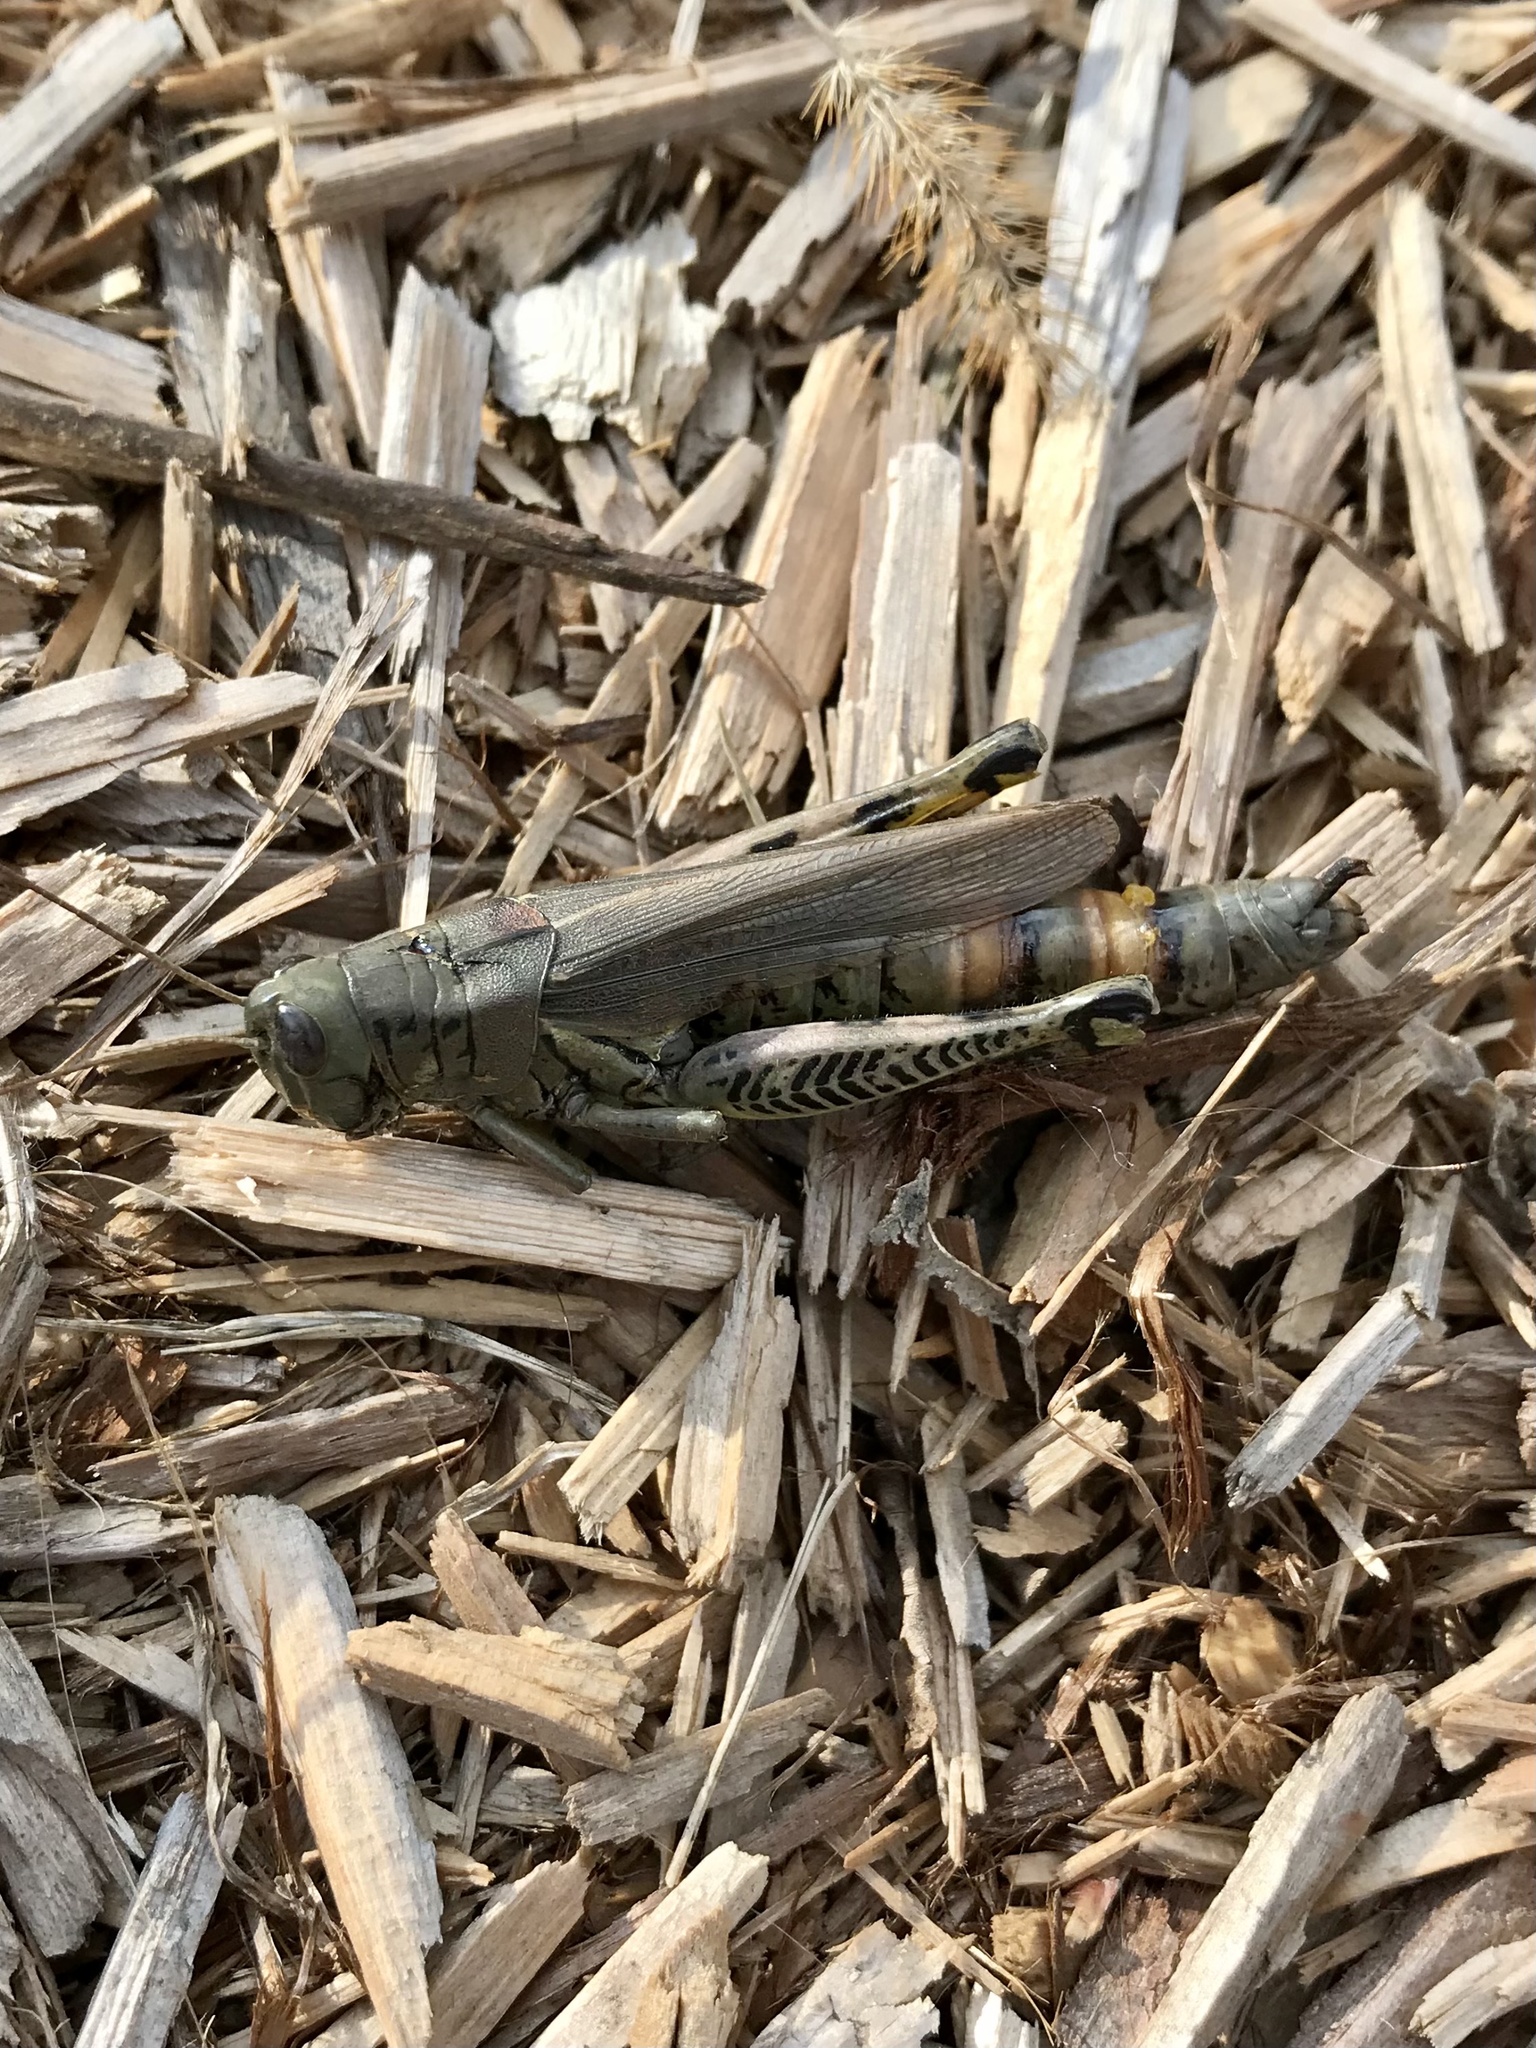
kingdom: Animalia
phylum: Arthropoda
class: Insecta
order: Orthoptera
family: Acrididae
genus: Melanoplus
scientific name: Melanoplus differentialis
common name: Differential grasshopper
